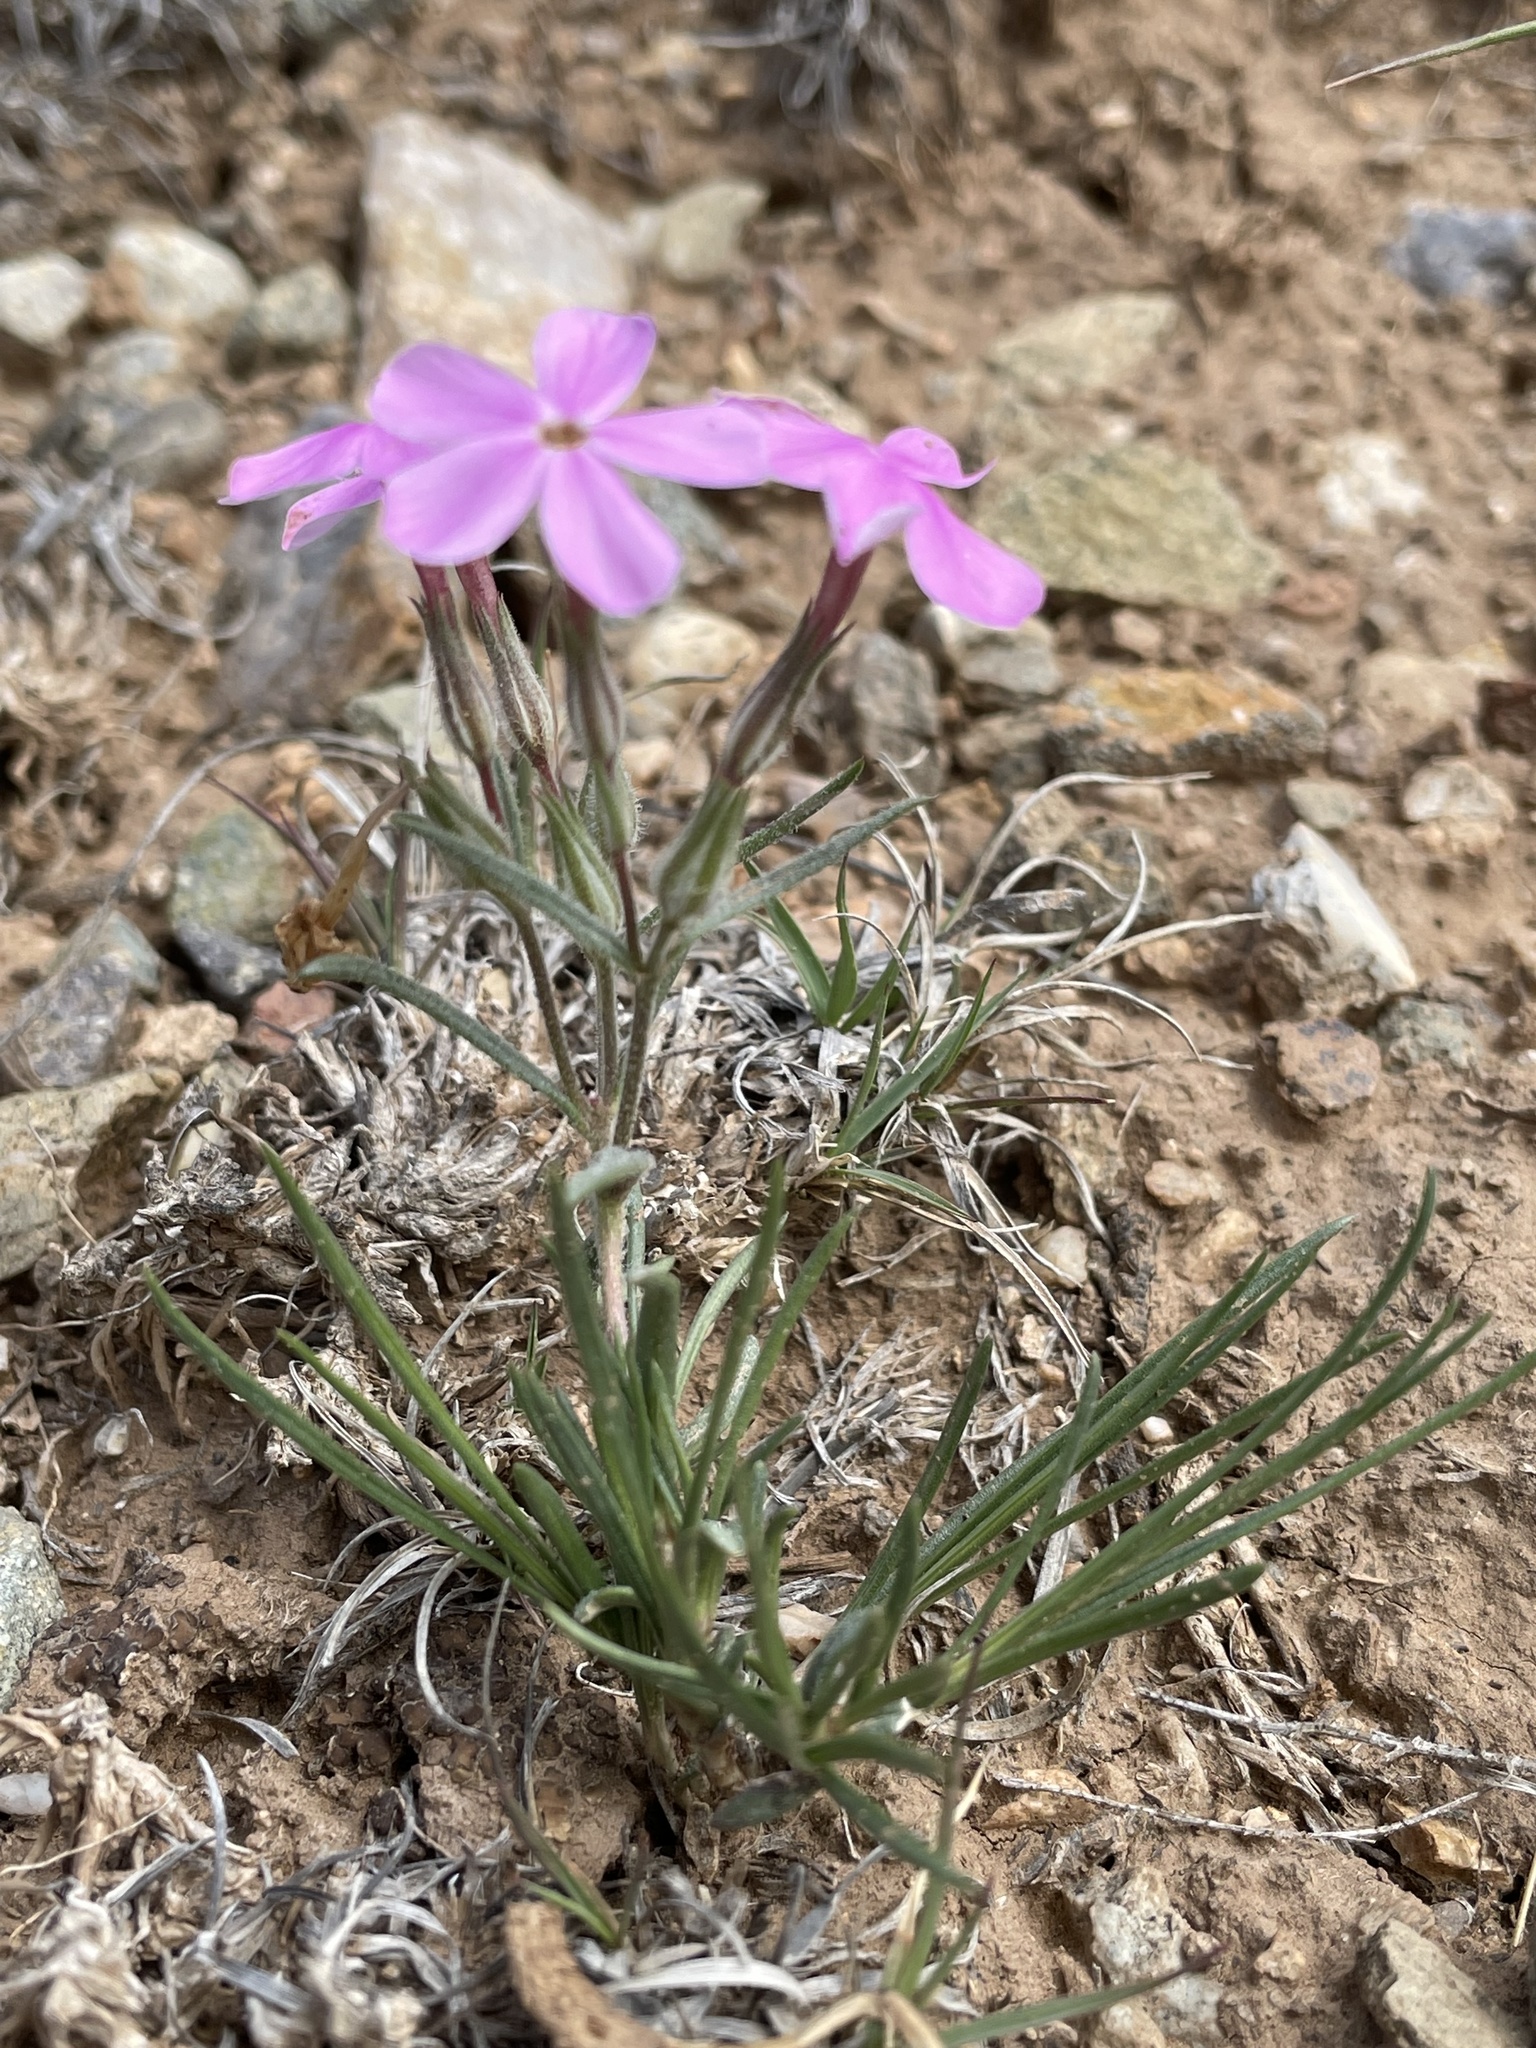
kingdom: Plantae
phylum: Tracheophyta
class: Magnoliopsida
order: Ericales
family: Polemoniaceae
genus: Phlox
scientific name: Phlox longifolia
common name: Longleaf phlox
